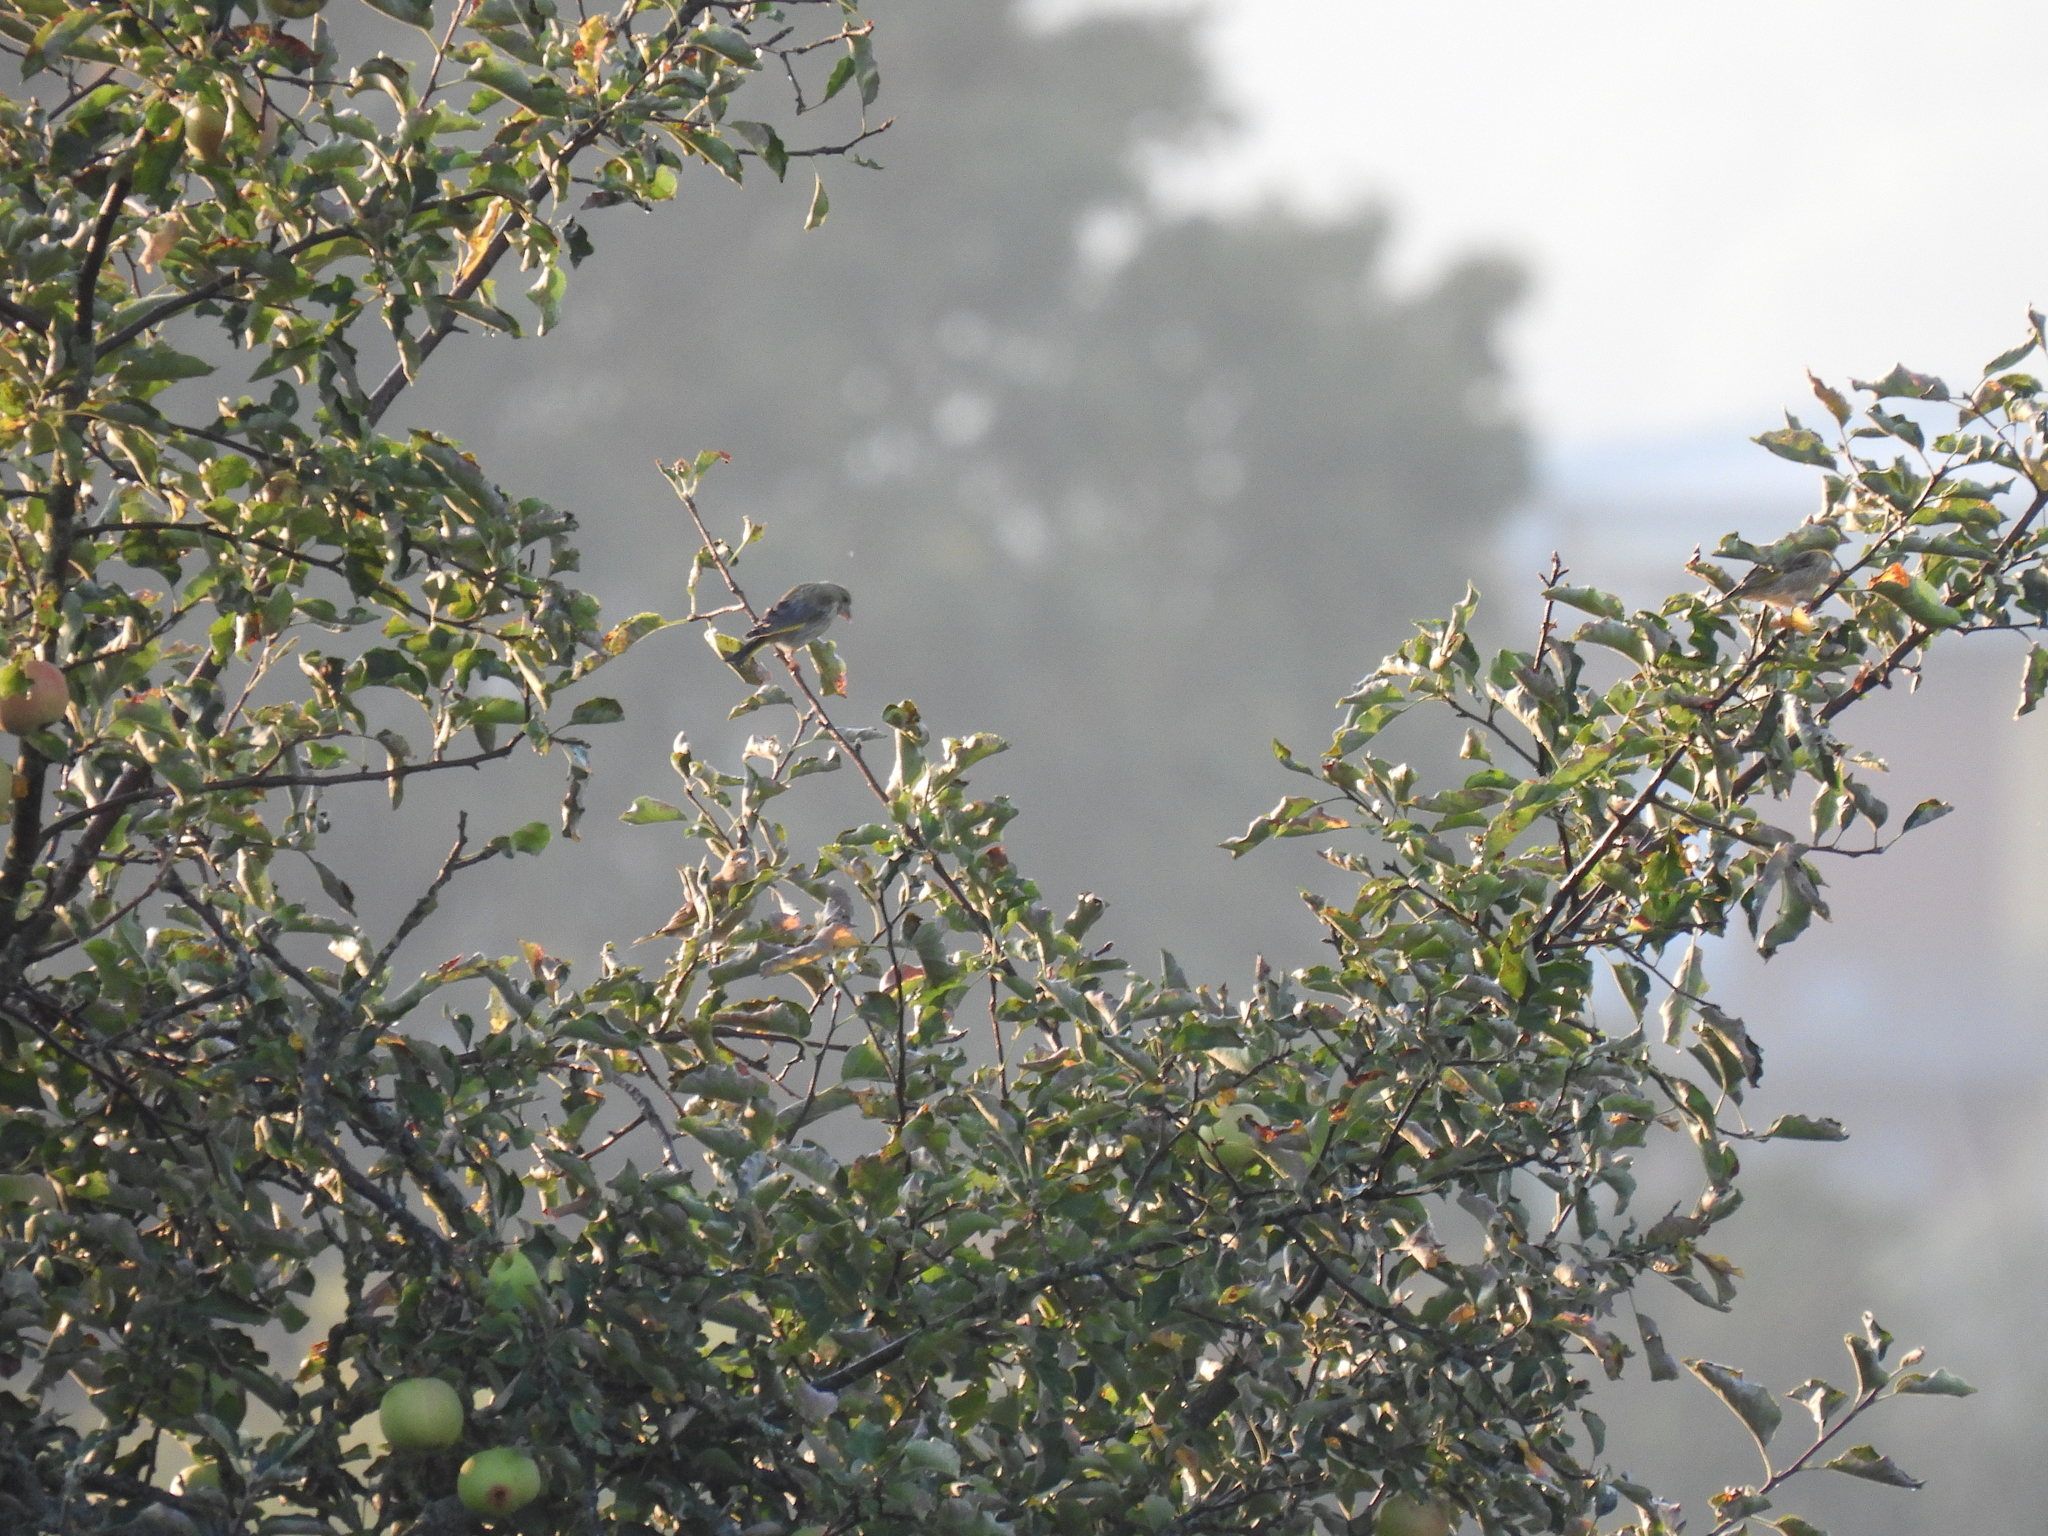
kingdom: Plantae
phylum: Tracheophyta
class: Liliopsida
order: Poales
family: Poaceae
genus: Chloris
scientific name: Chloris chloris
